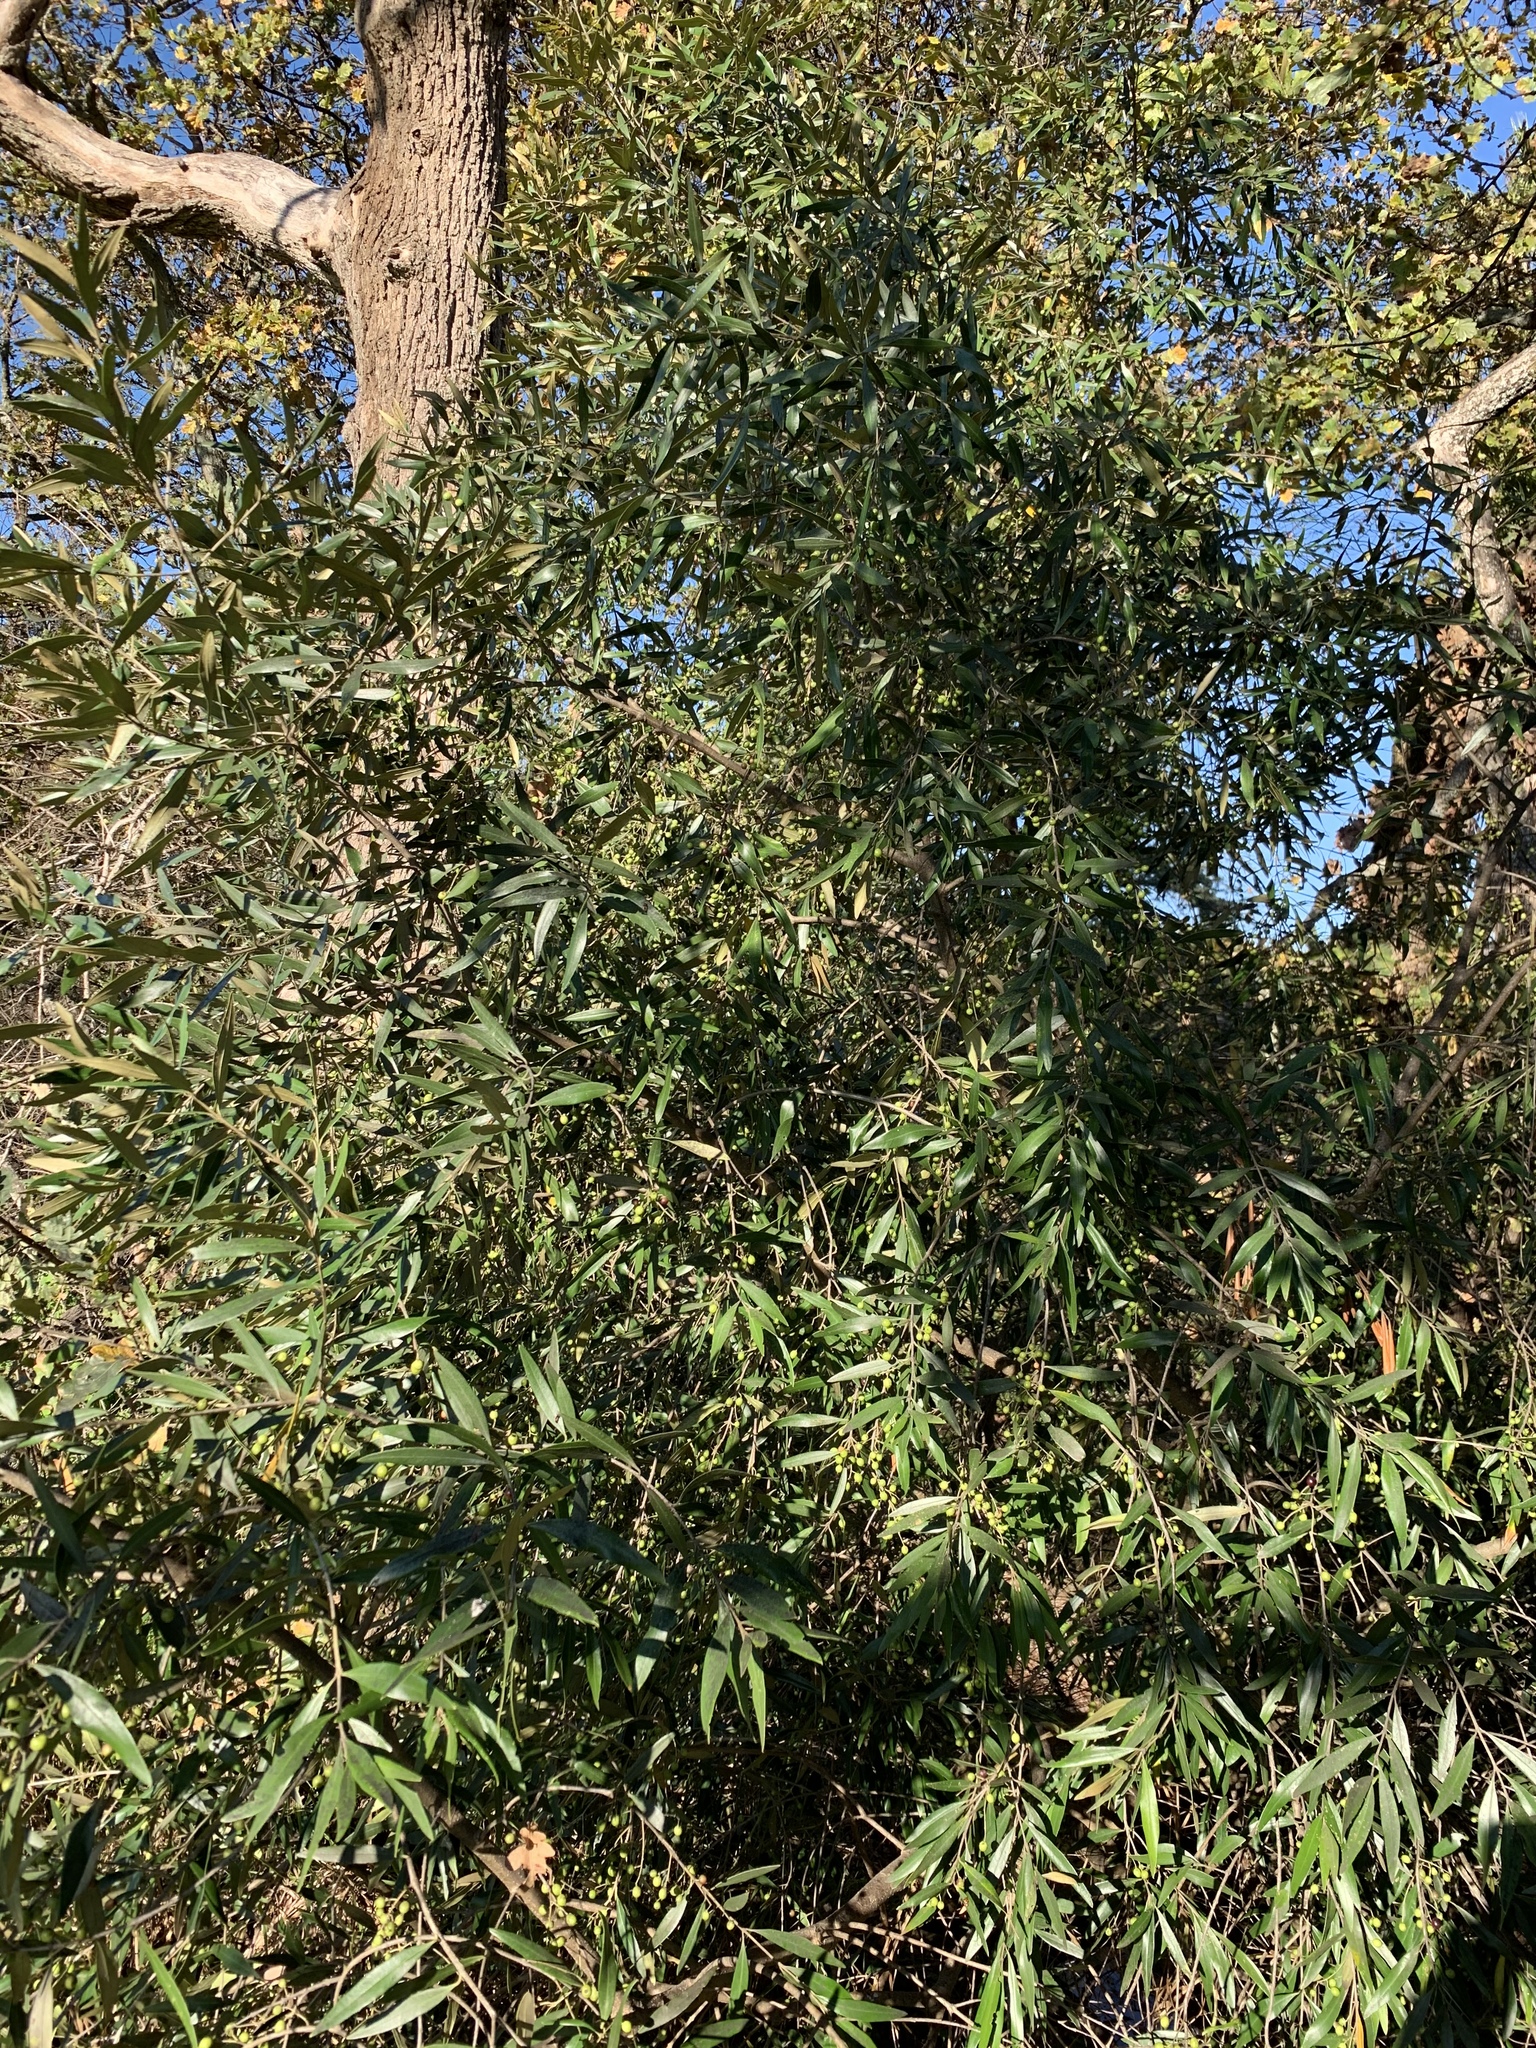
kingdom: Plantae
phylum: Tracheophyta
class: Magnoliopsida
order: Lamiales
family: Oleaceae
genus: Olea
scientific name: Olea europaea
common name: Olive
